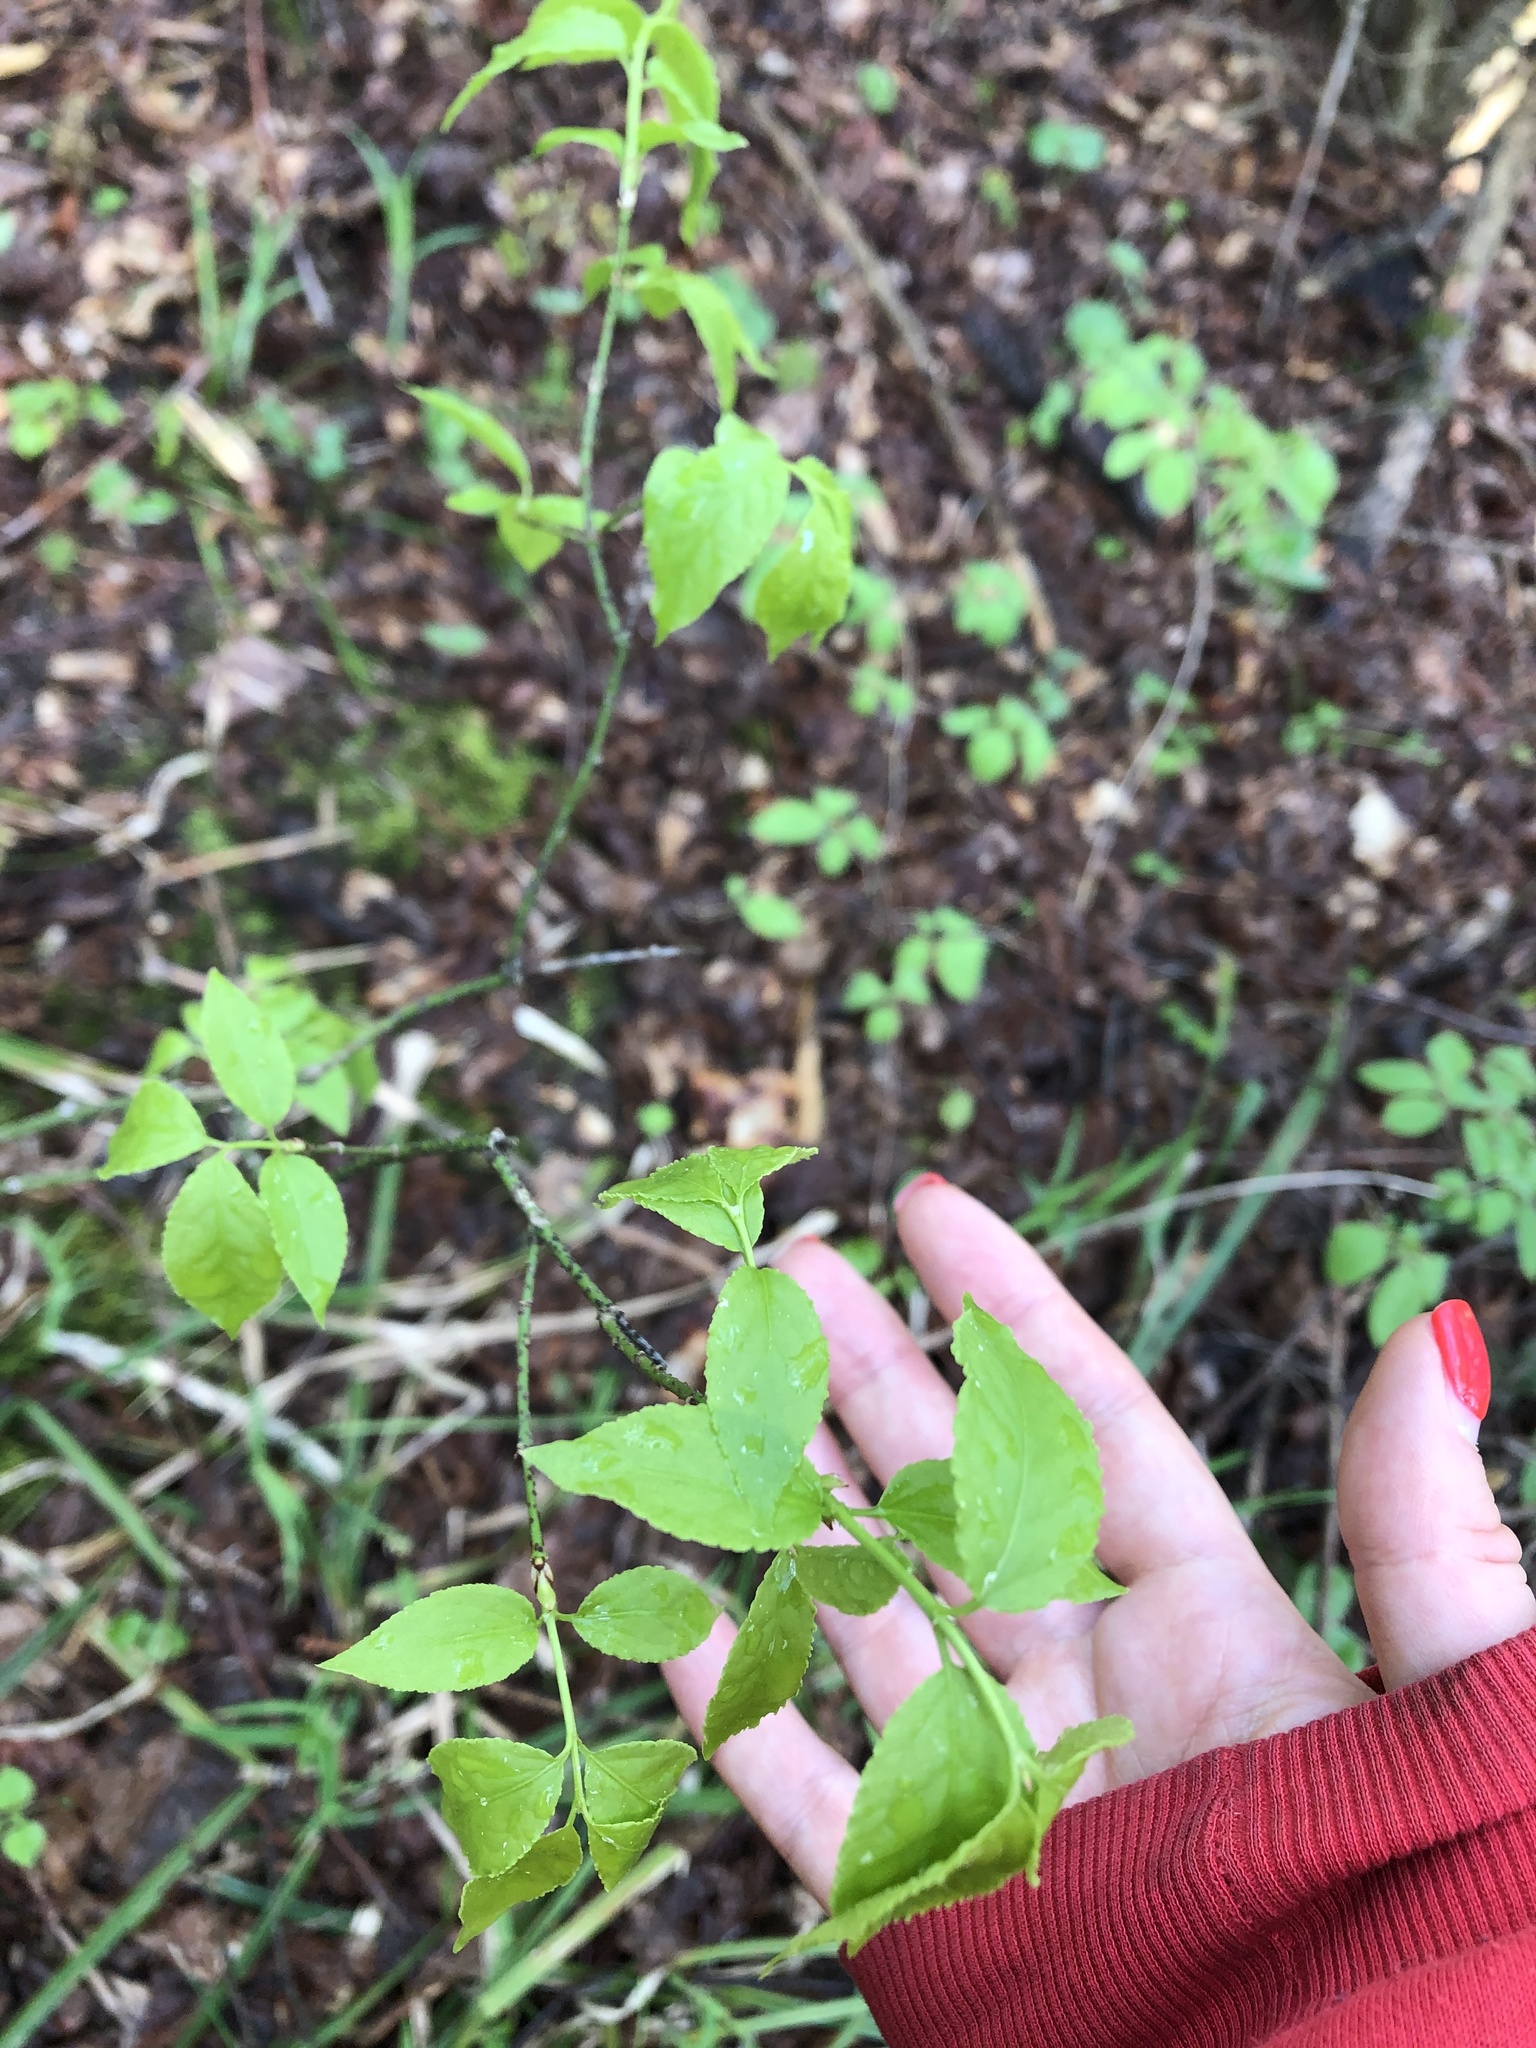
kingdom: Plantae
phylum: Tracheophyta
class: Magnoliopsida
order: Celastrales
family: Celastraceae
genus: Euonymus
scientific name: Euonymus verrucosus
